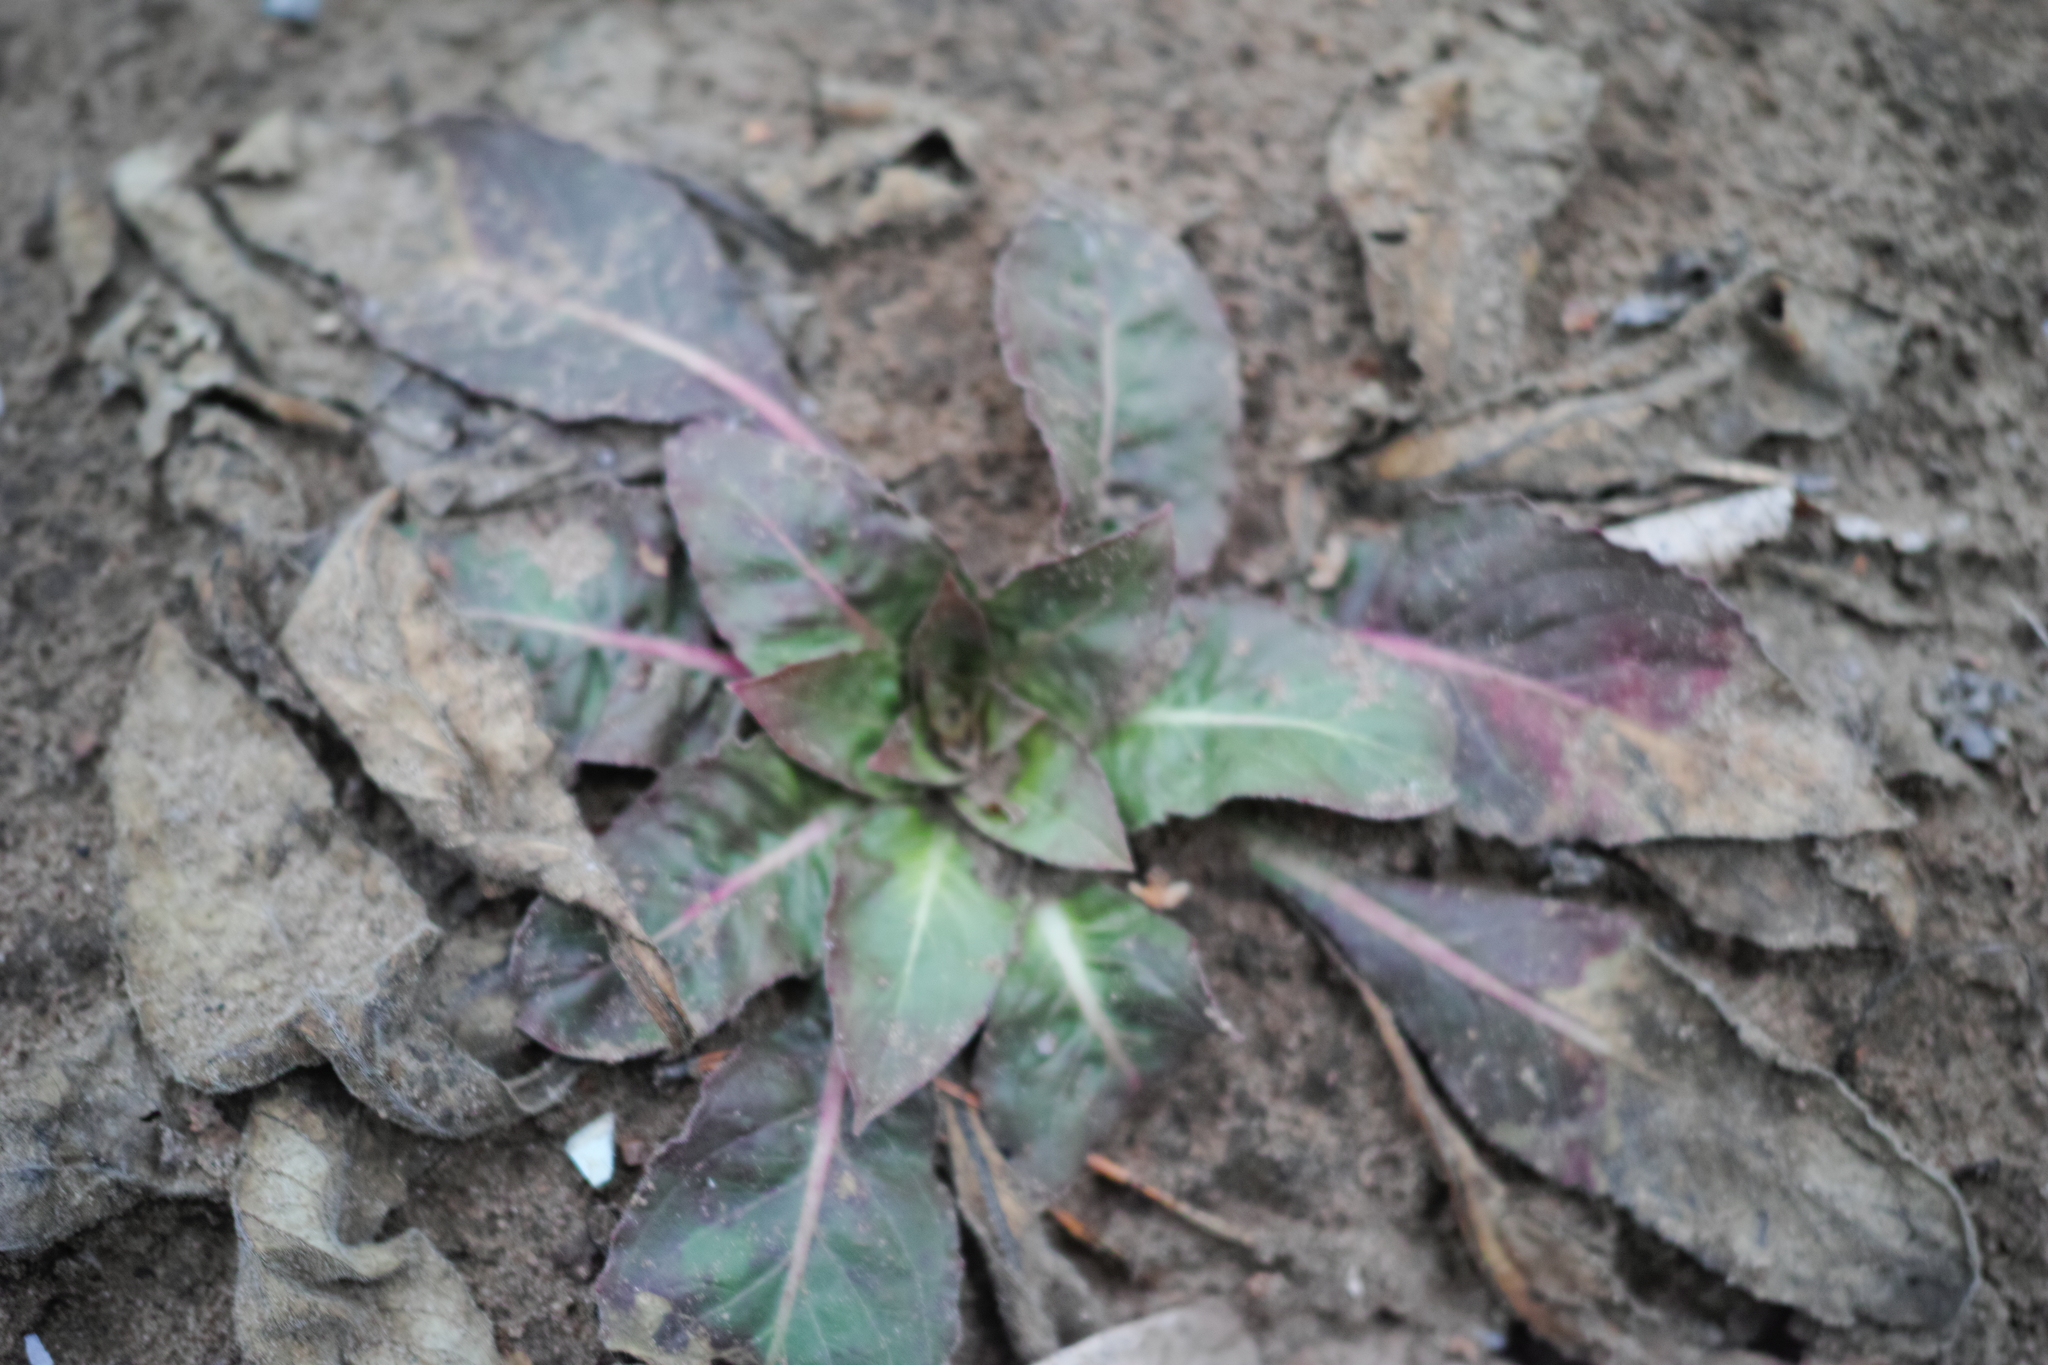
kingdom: Plantae
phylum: Tracheophyta
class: Magnoliopsida
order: Myrtales
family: Onagraceae
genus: Oenothera
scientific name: Oenothera
